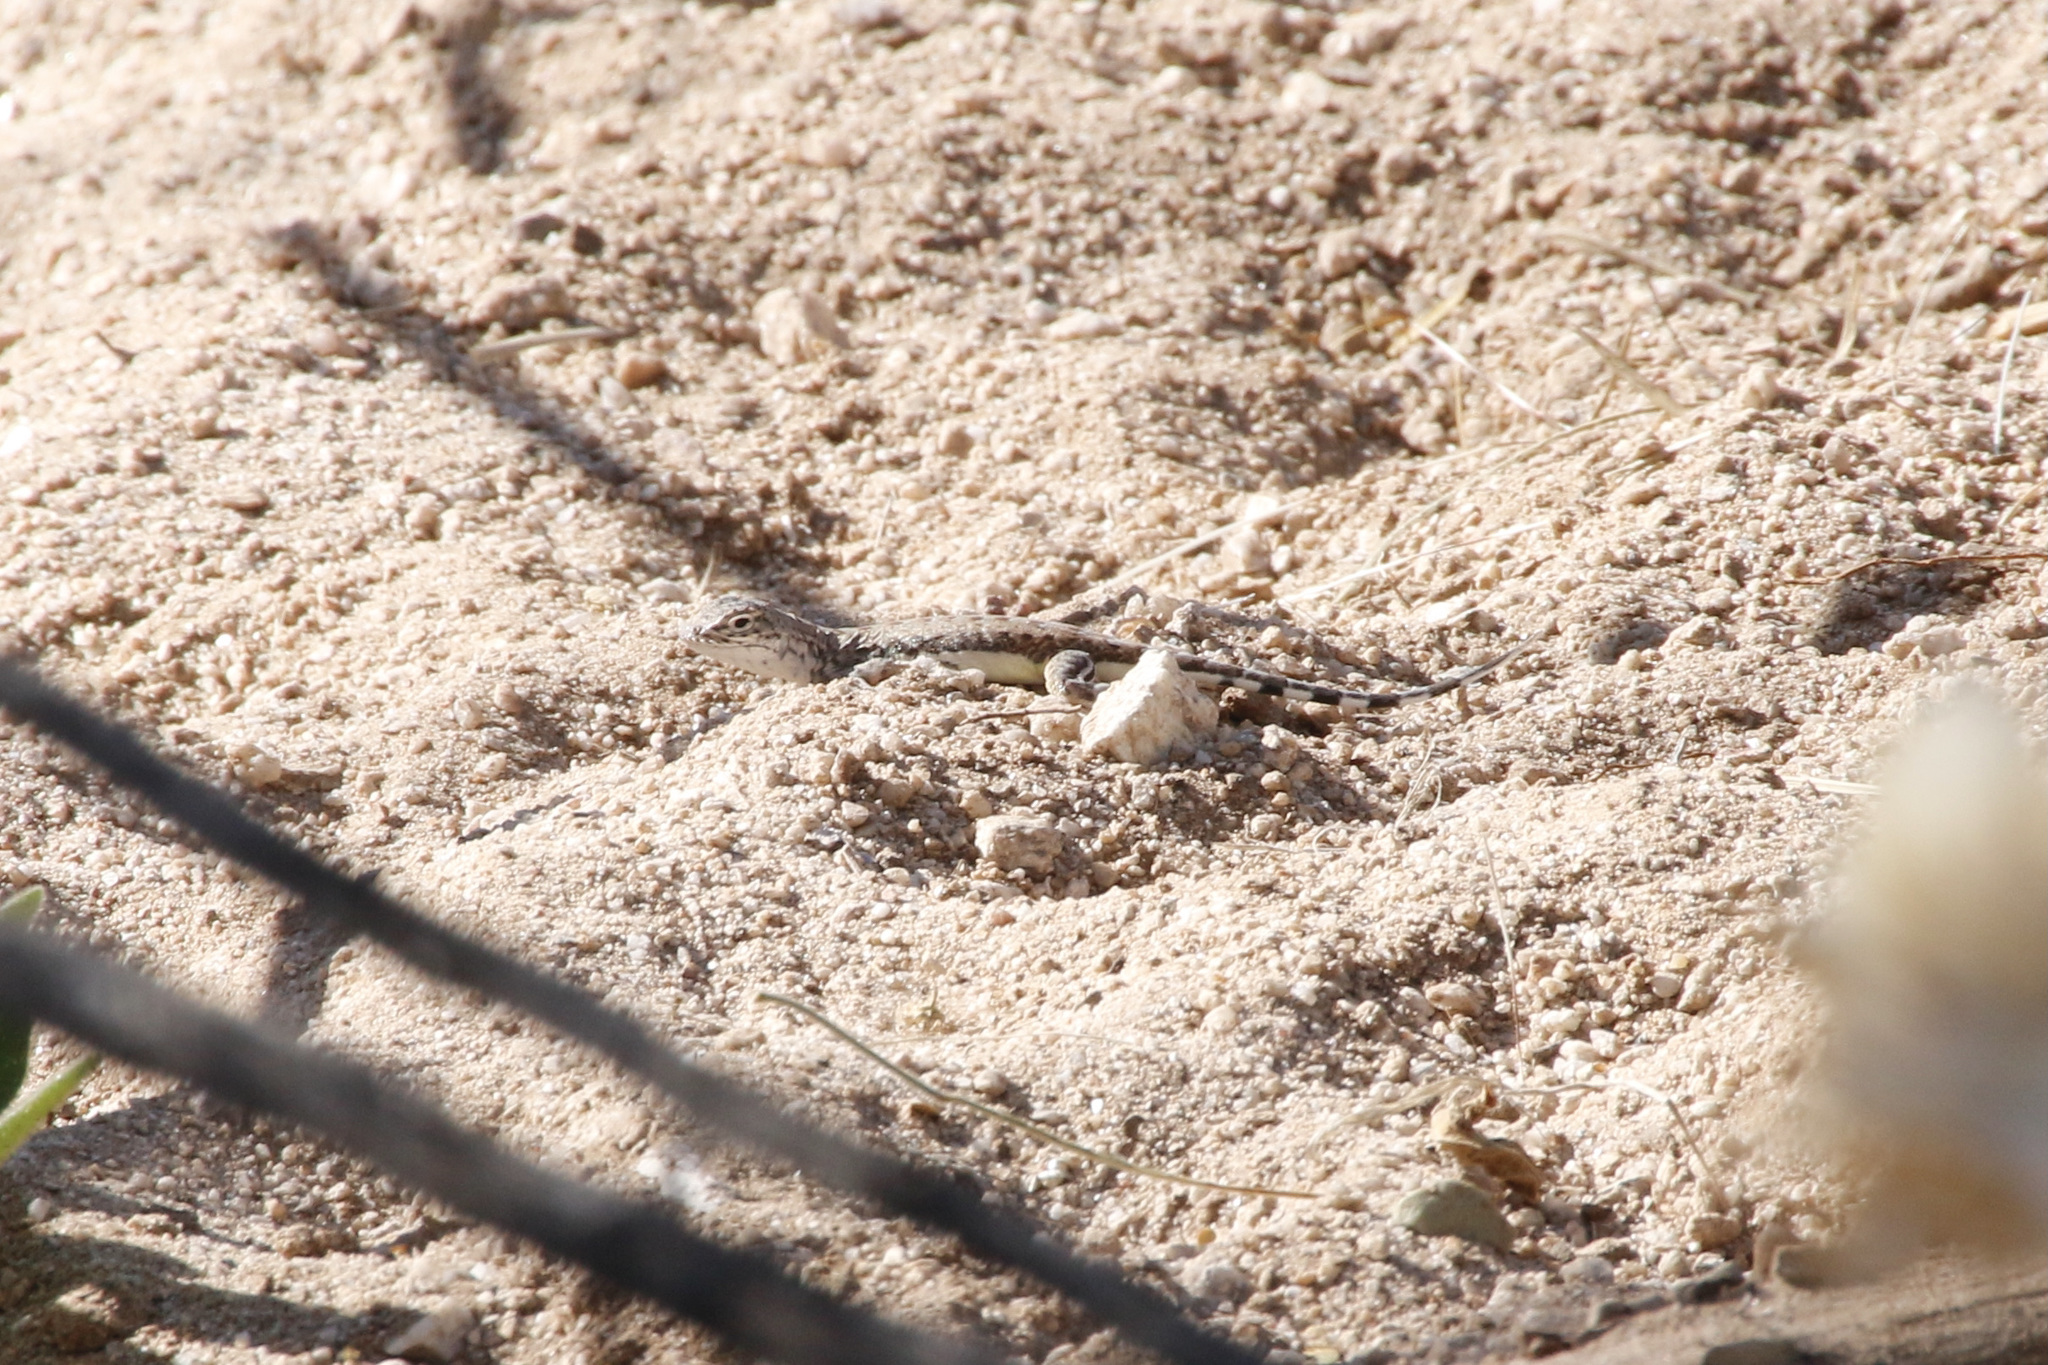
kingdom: Animalia
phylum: Chordata
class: Squamata
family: Phrynosomatidae
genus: Callisaurus
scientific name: Callisaurus draconoides
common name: Zebra-tailed lizard
